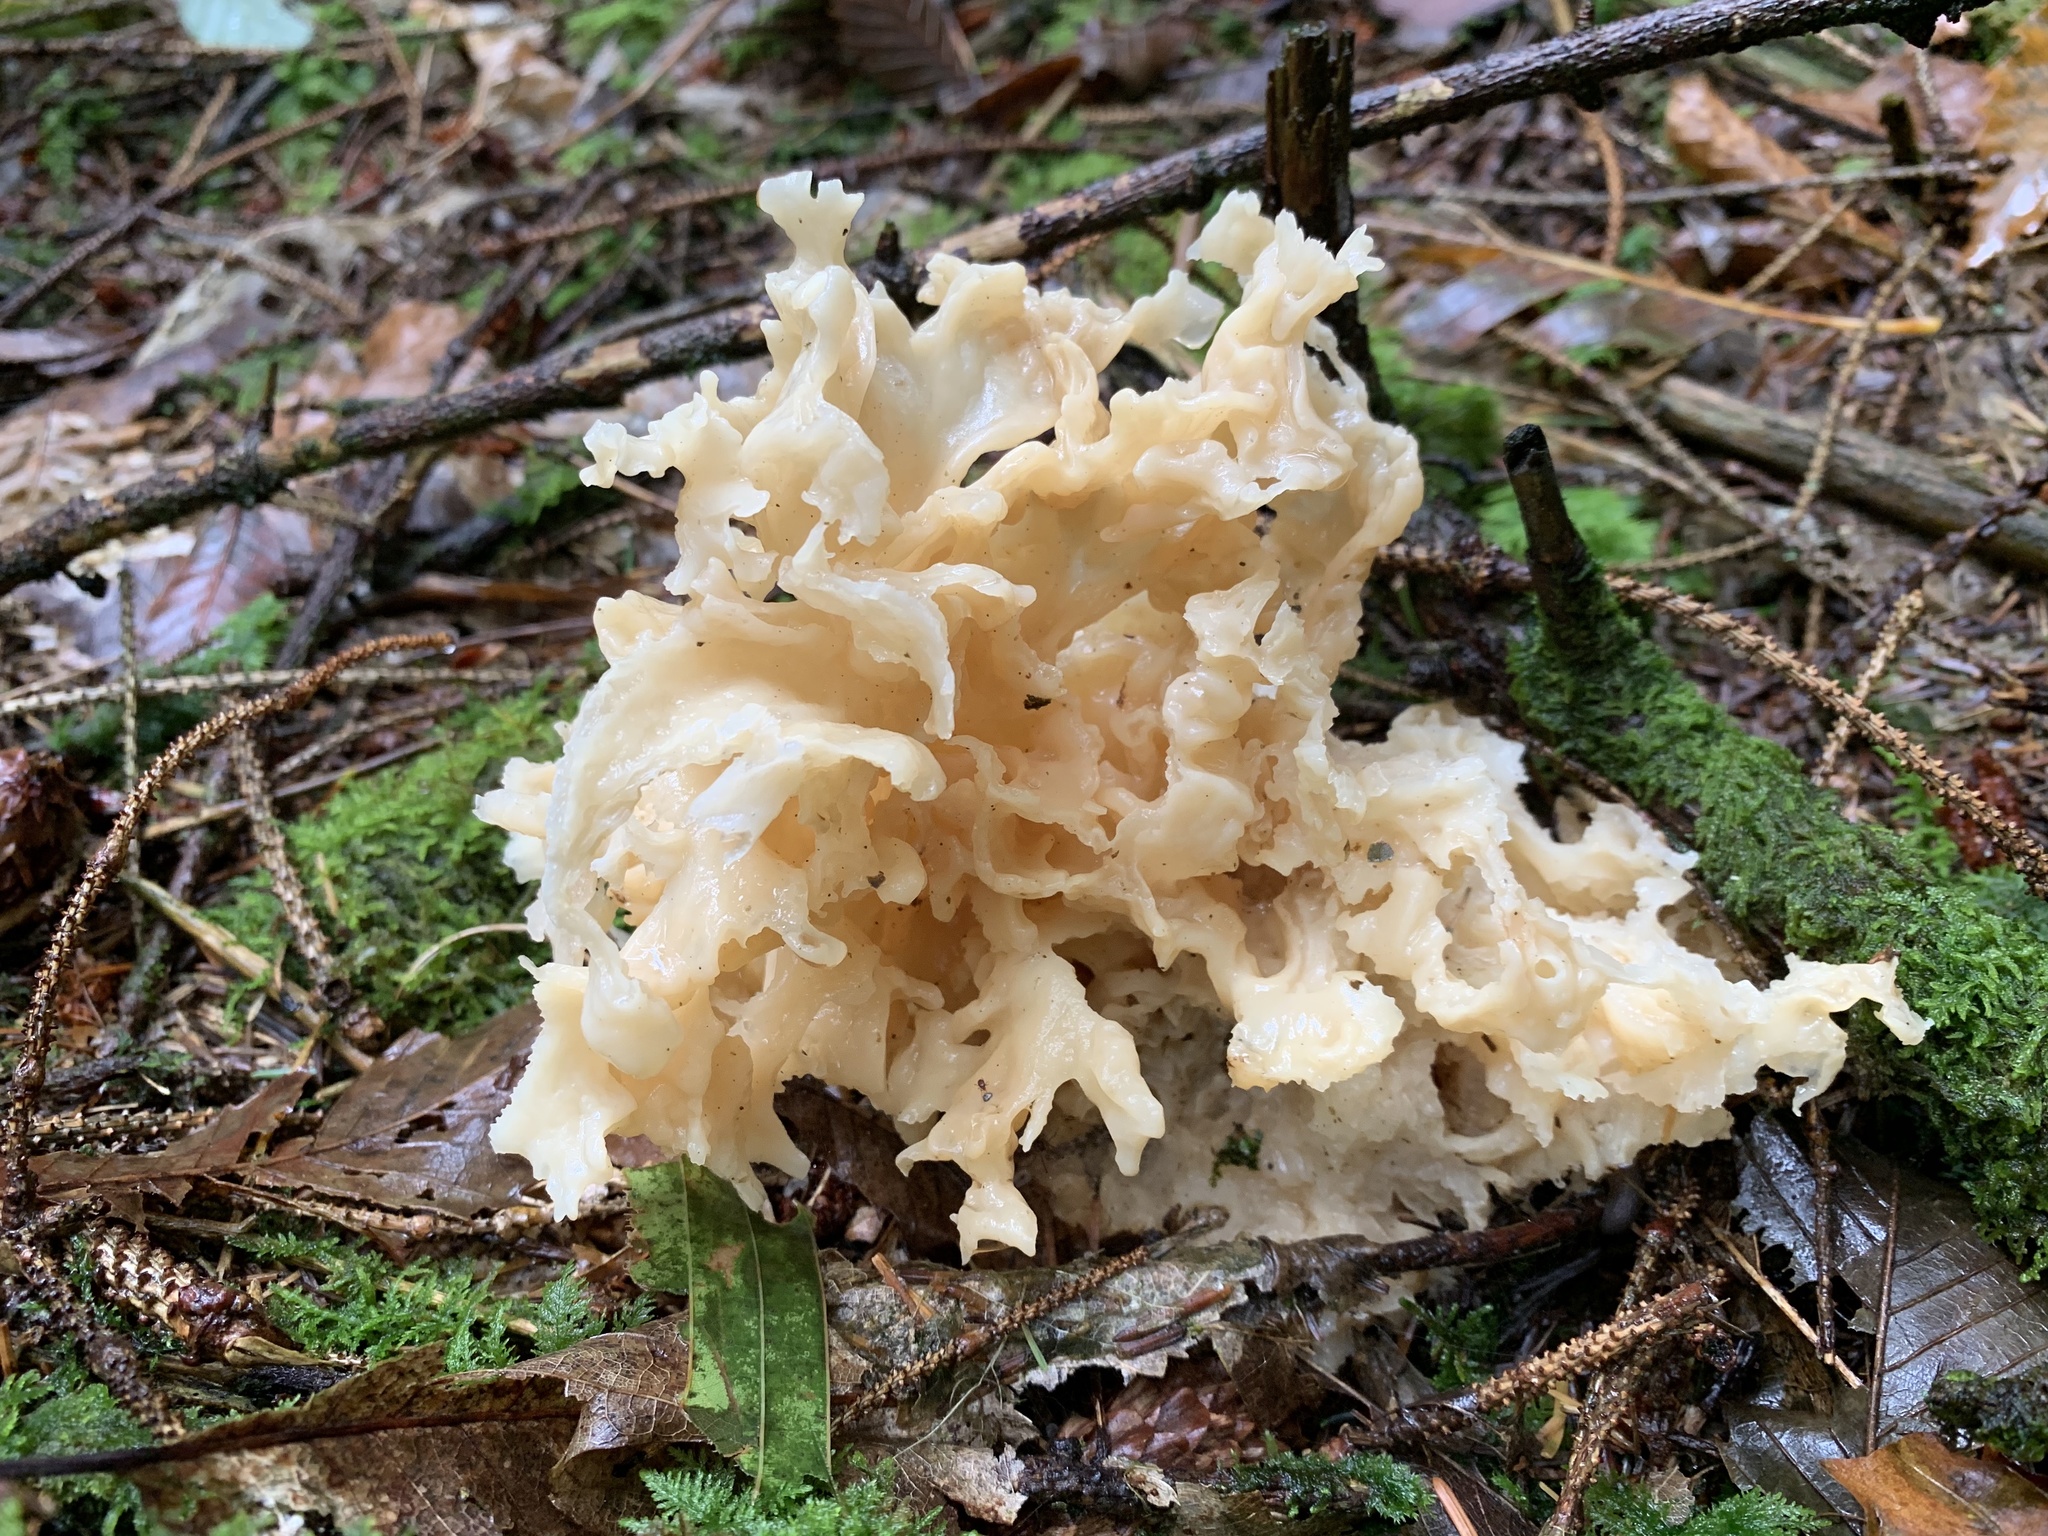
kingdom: Fungi
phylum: Basidiomycota
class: Agaricomycetes
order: Polyporales
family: Sparassidaceae
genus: Sparassis
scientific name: Sparassis crispa
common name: Brain fungus
